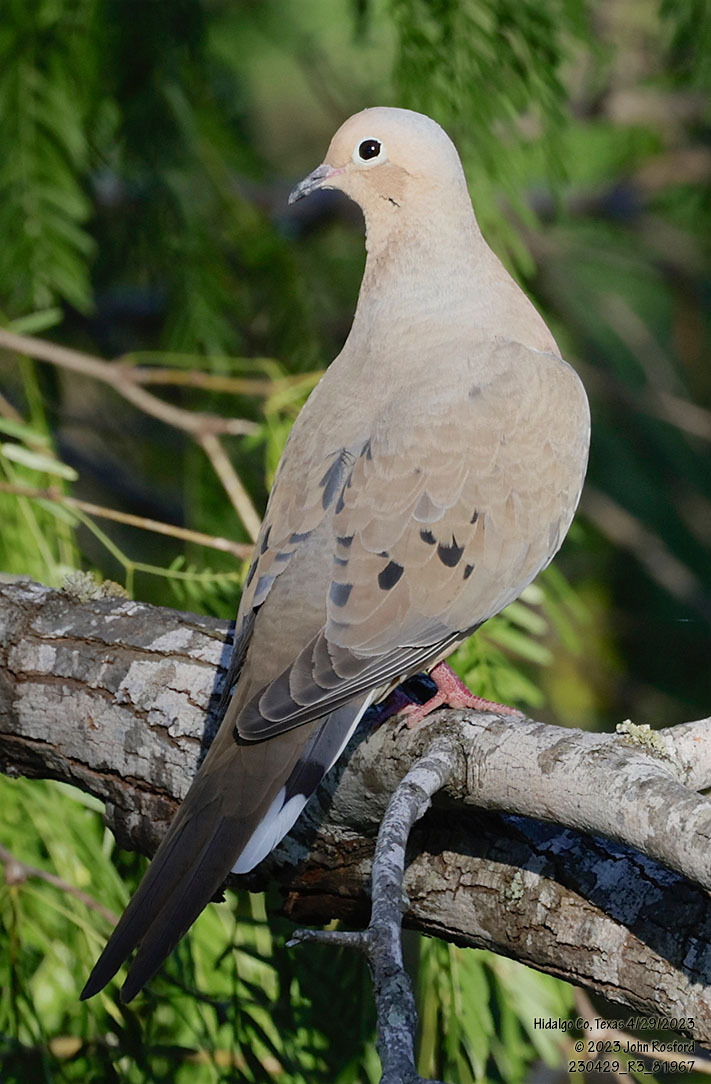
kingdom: Animalia
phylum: Chordata
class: Aves
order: Columbiformes
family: Columbidae
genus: Zenaida
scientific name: Zenaida macroura
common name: Mourning dove
